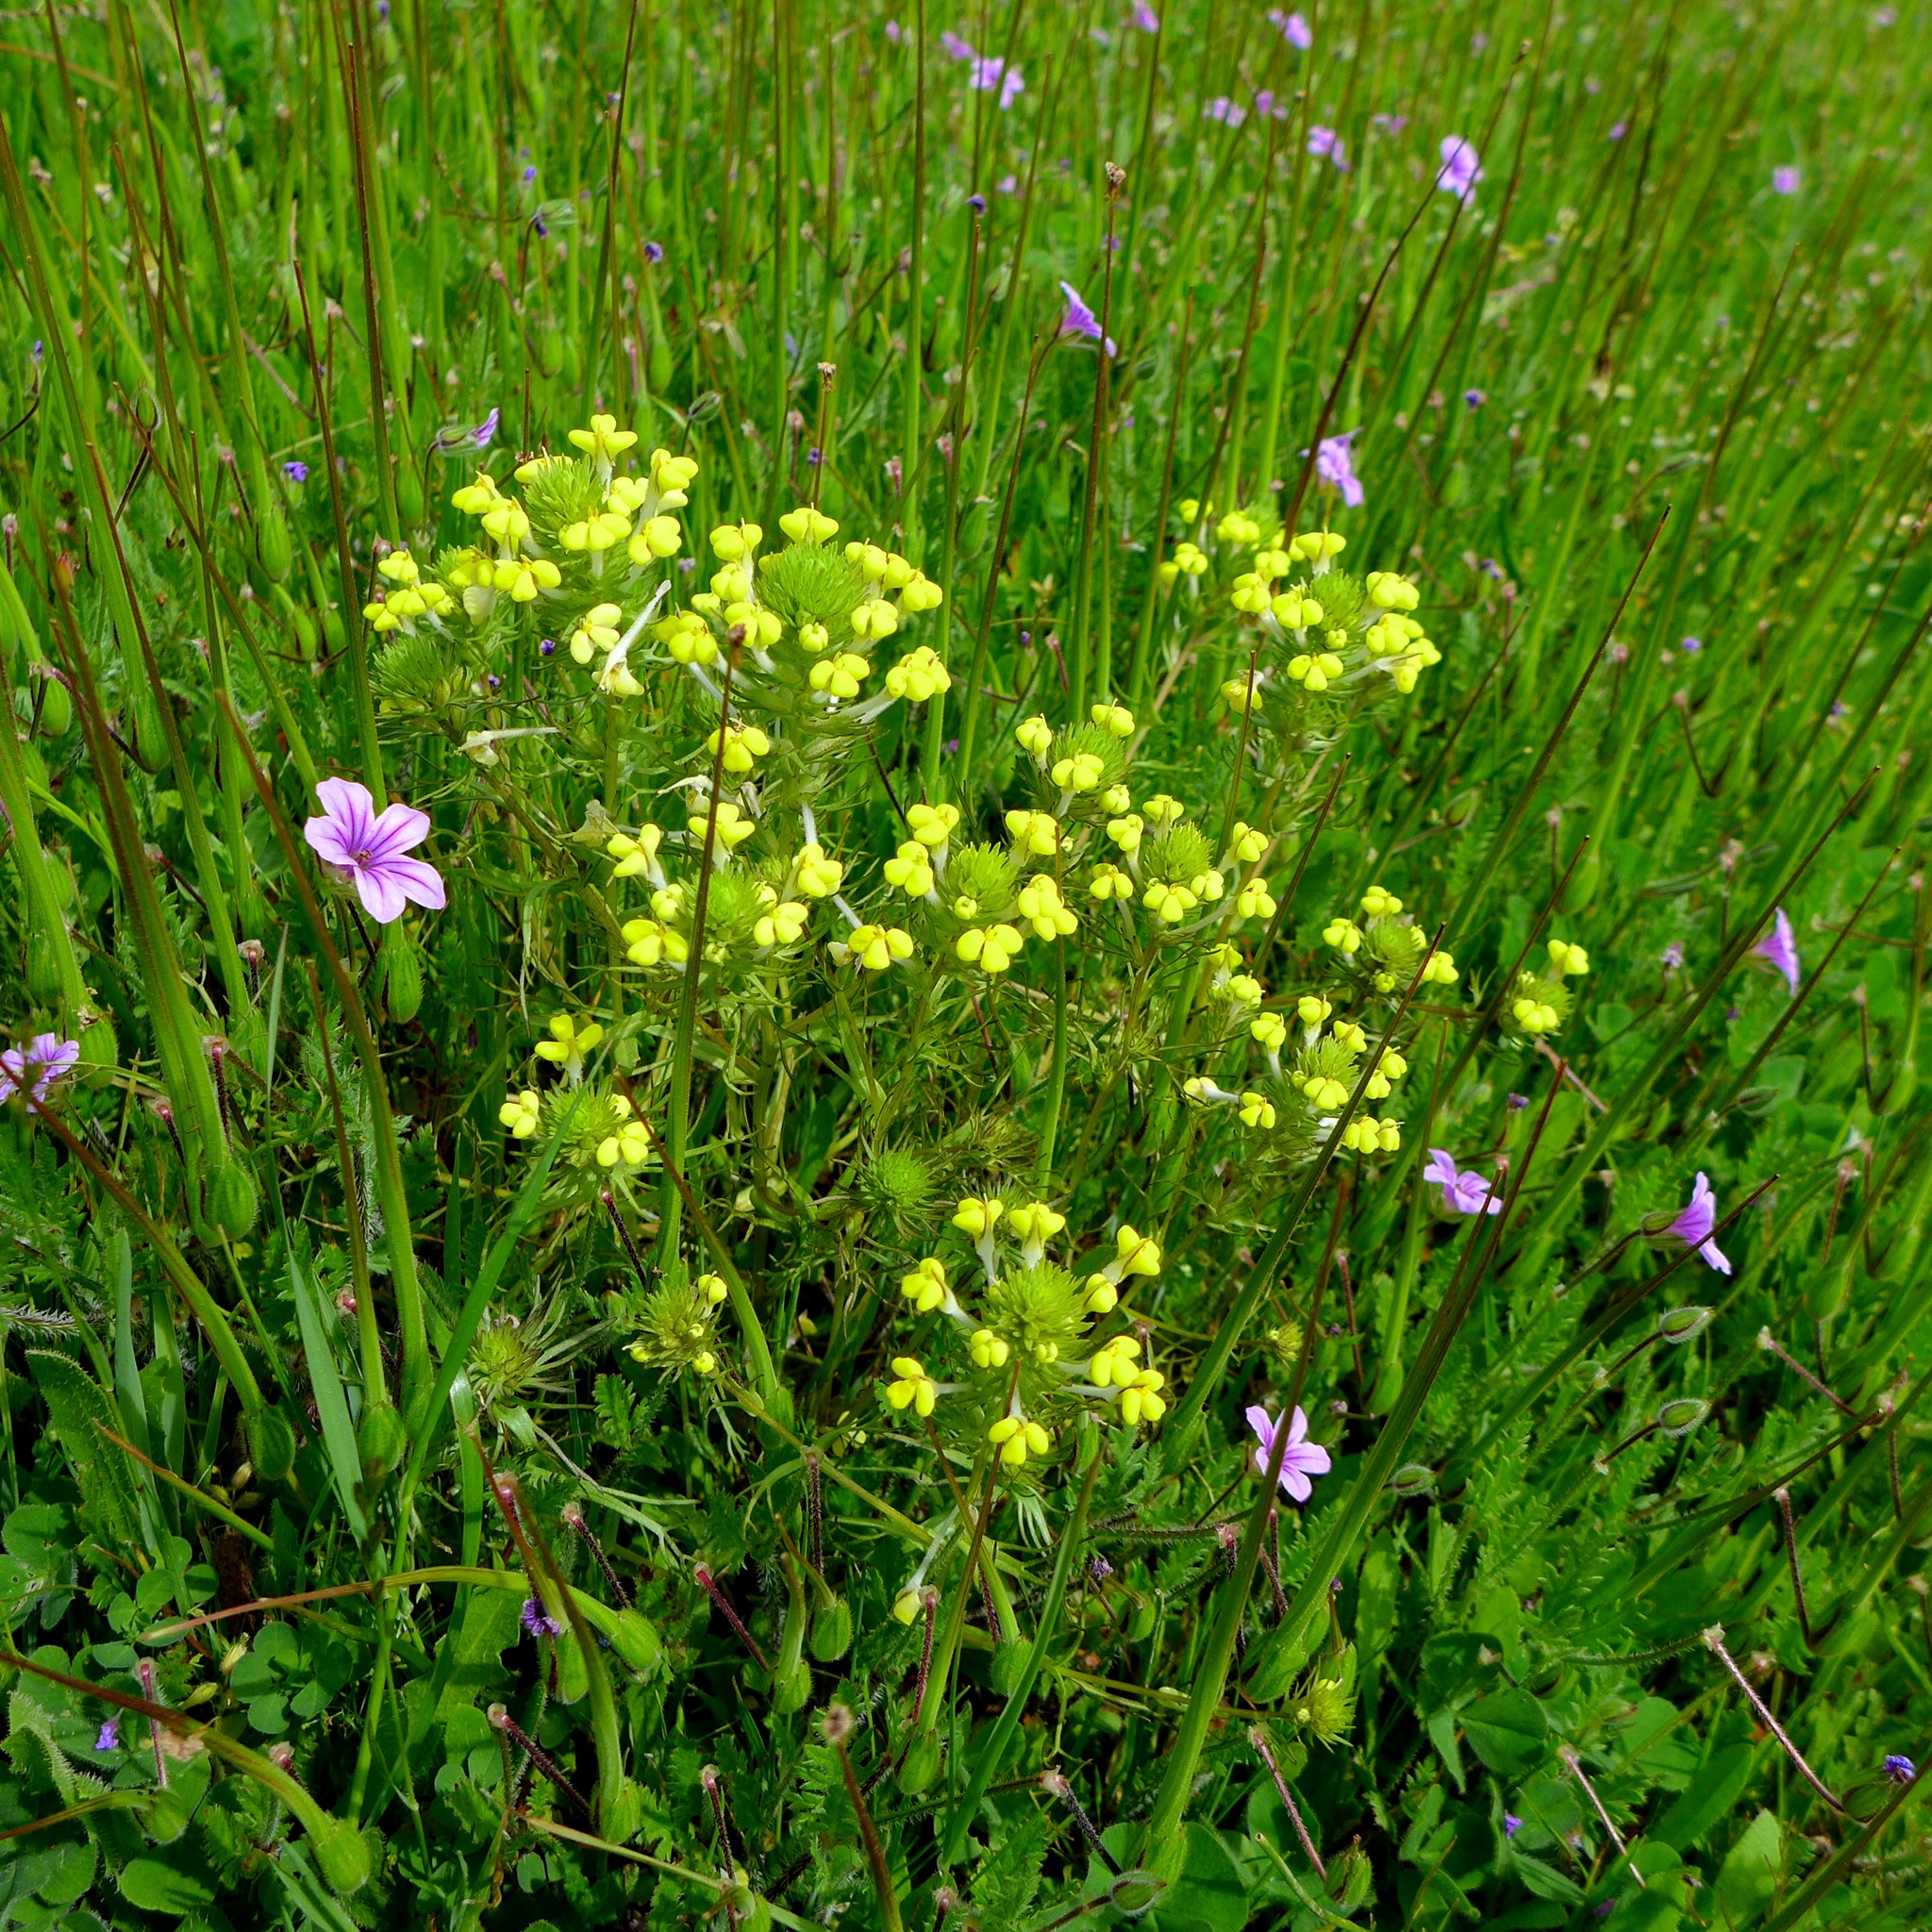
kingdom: Plantae
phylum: Tracheophyta
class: Magnoliopsida
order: Lamiales
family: Orobanchaceae
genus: Triphysaria
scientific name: Triphysaria versicolor
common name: Bearded false owl-clover
